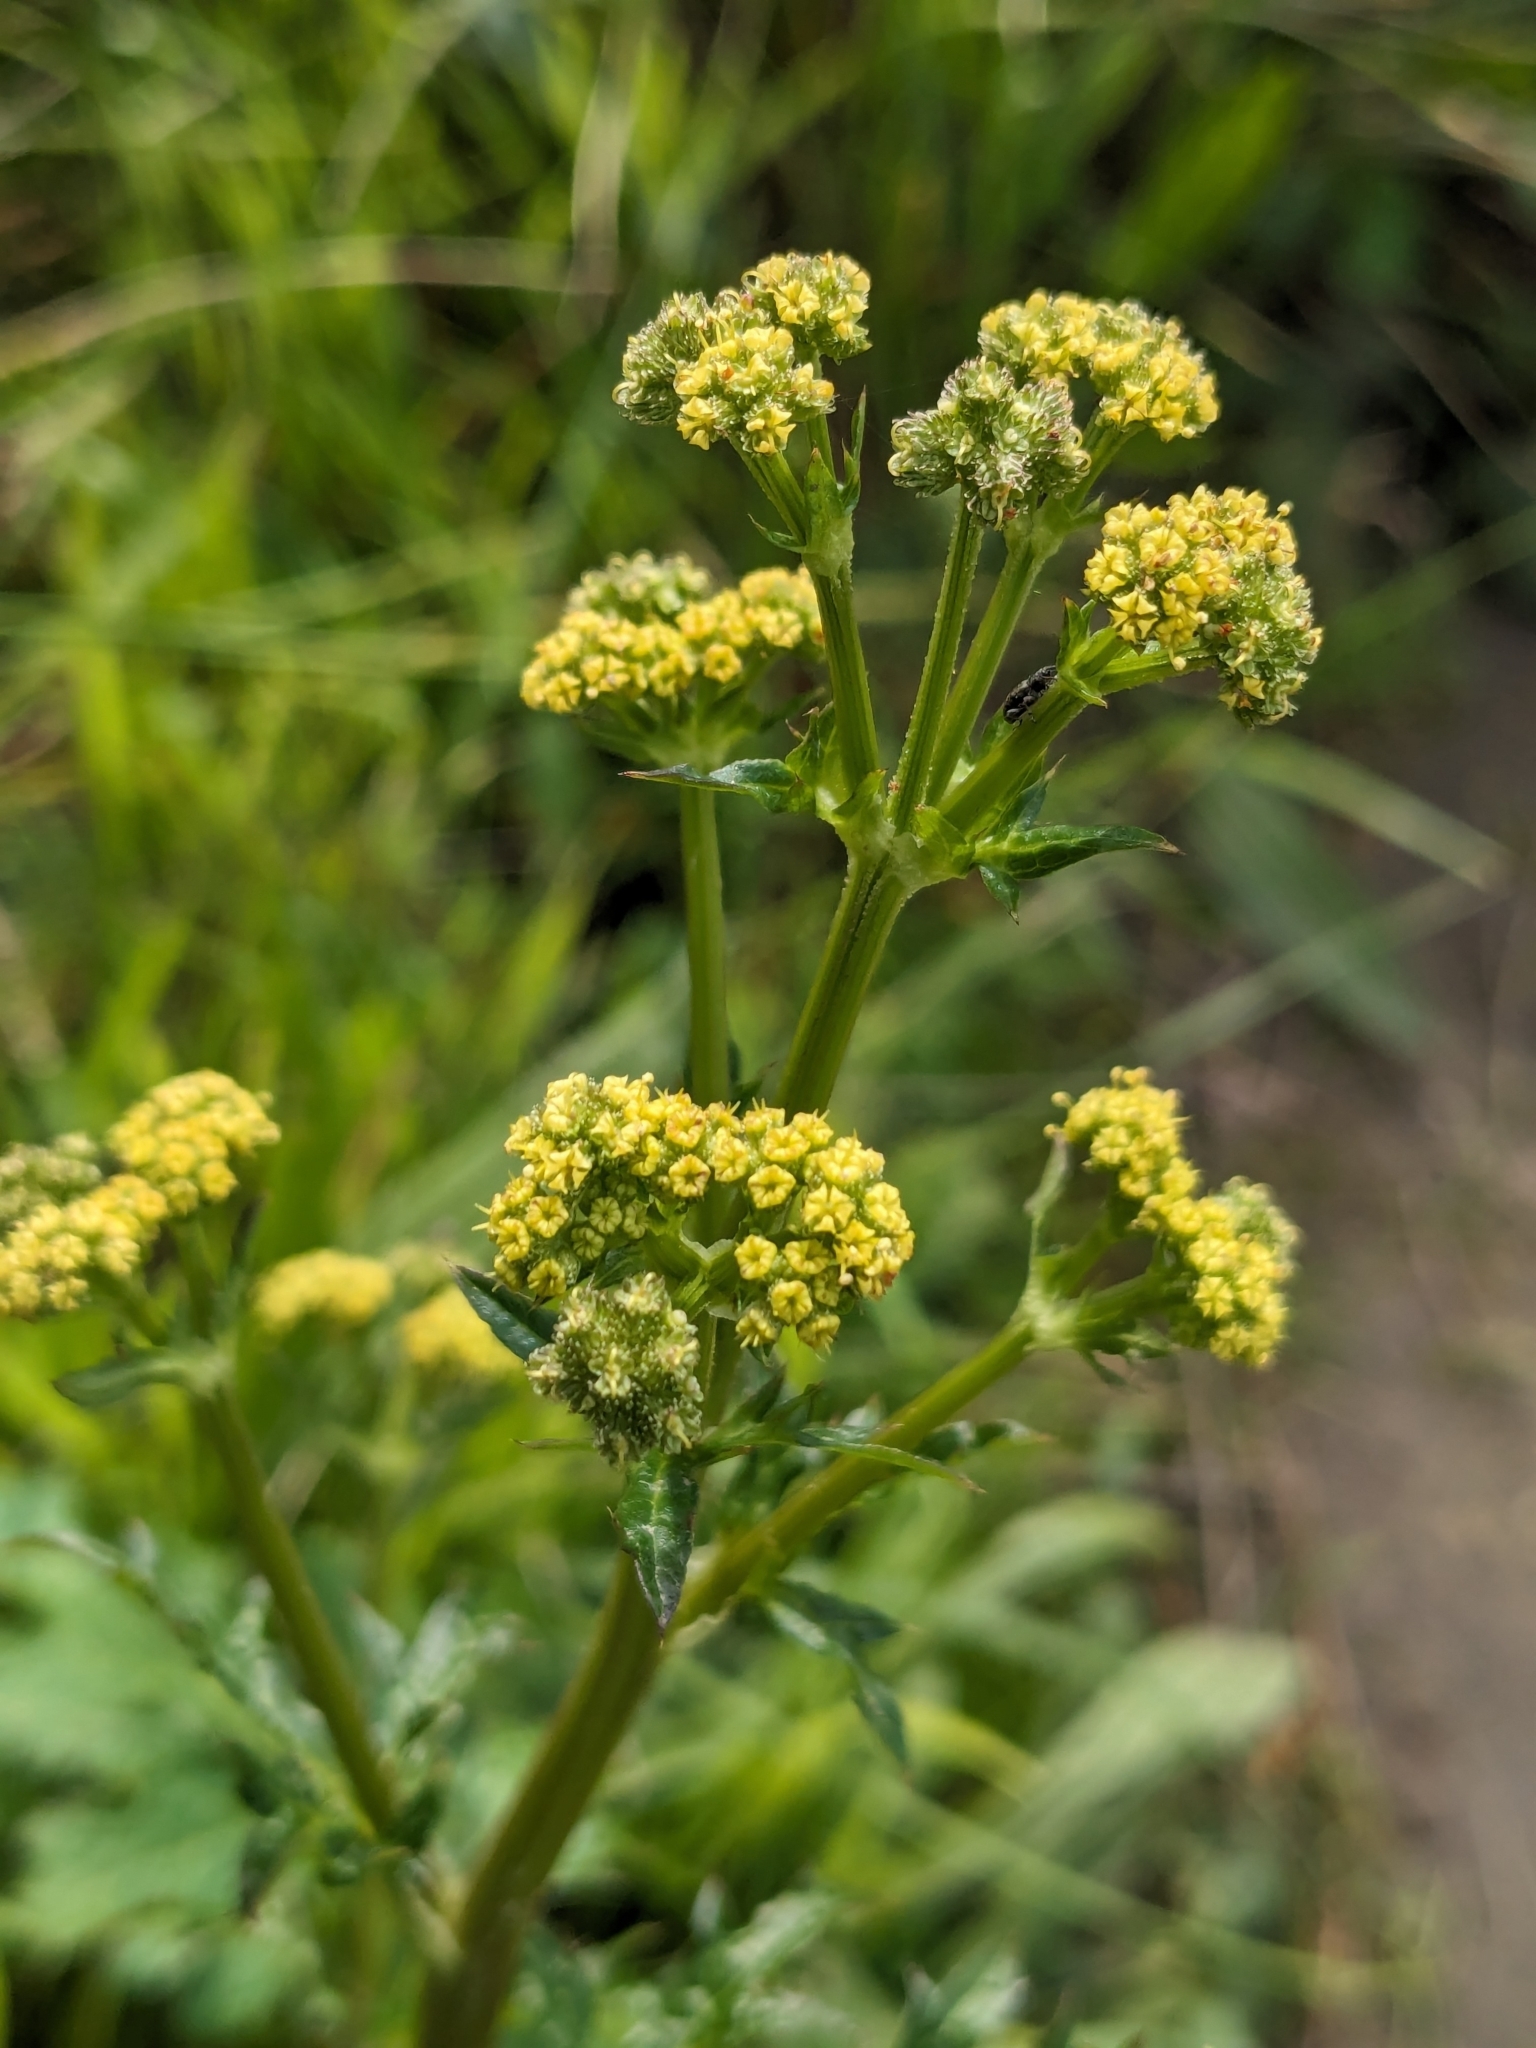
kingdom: Plantae
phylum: Tracheophyta
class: Magnoliopsida
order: Apiales
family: Apiaceae
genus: Sanicula
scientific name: Sanicula crassicaulis
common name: Western snakeroot
